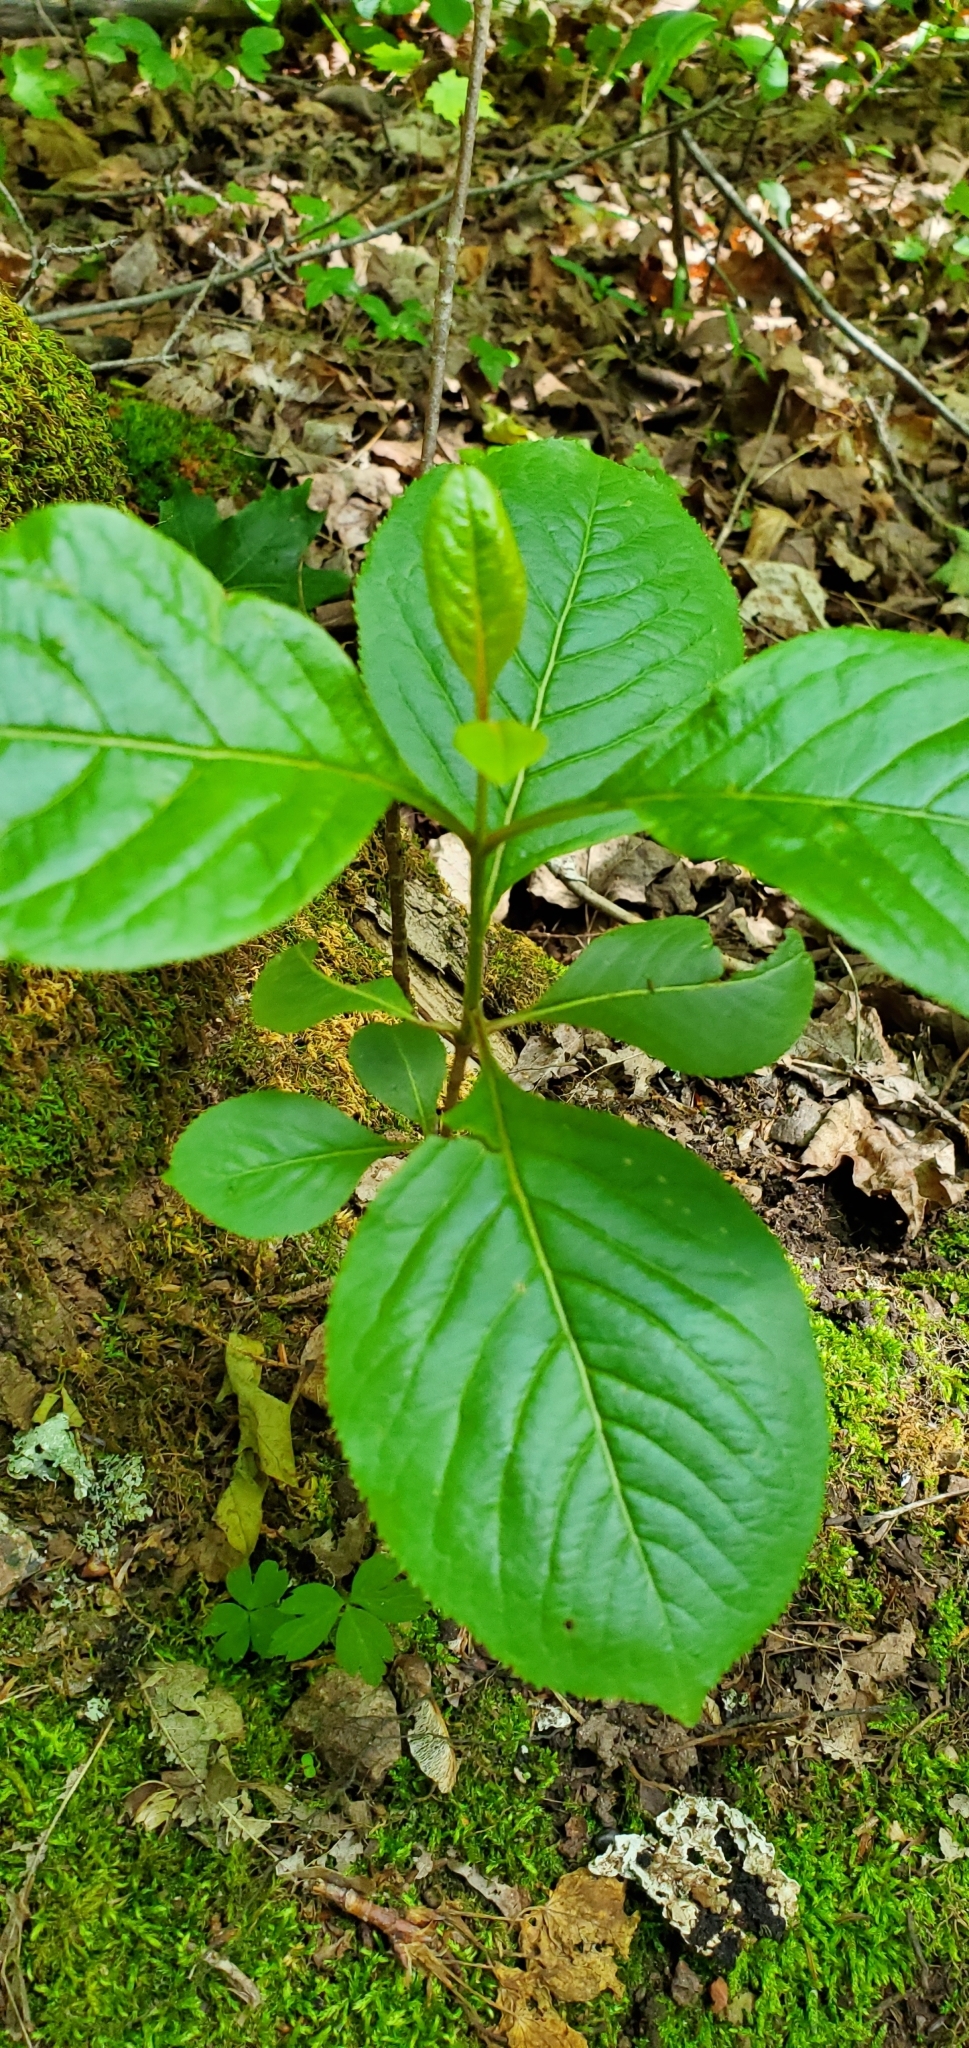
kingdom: Plantae
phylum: Tracheophyta
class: Magnoliopsida
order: Dipsacales
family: Viburnaceae
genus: Viburnum
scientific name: Viburnum lentago
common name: Black haw
